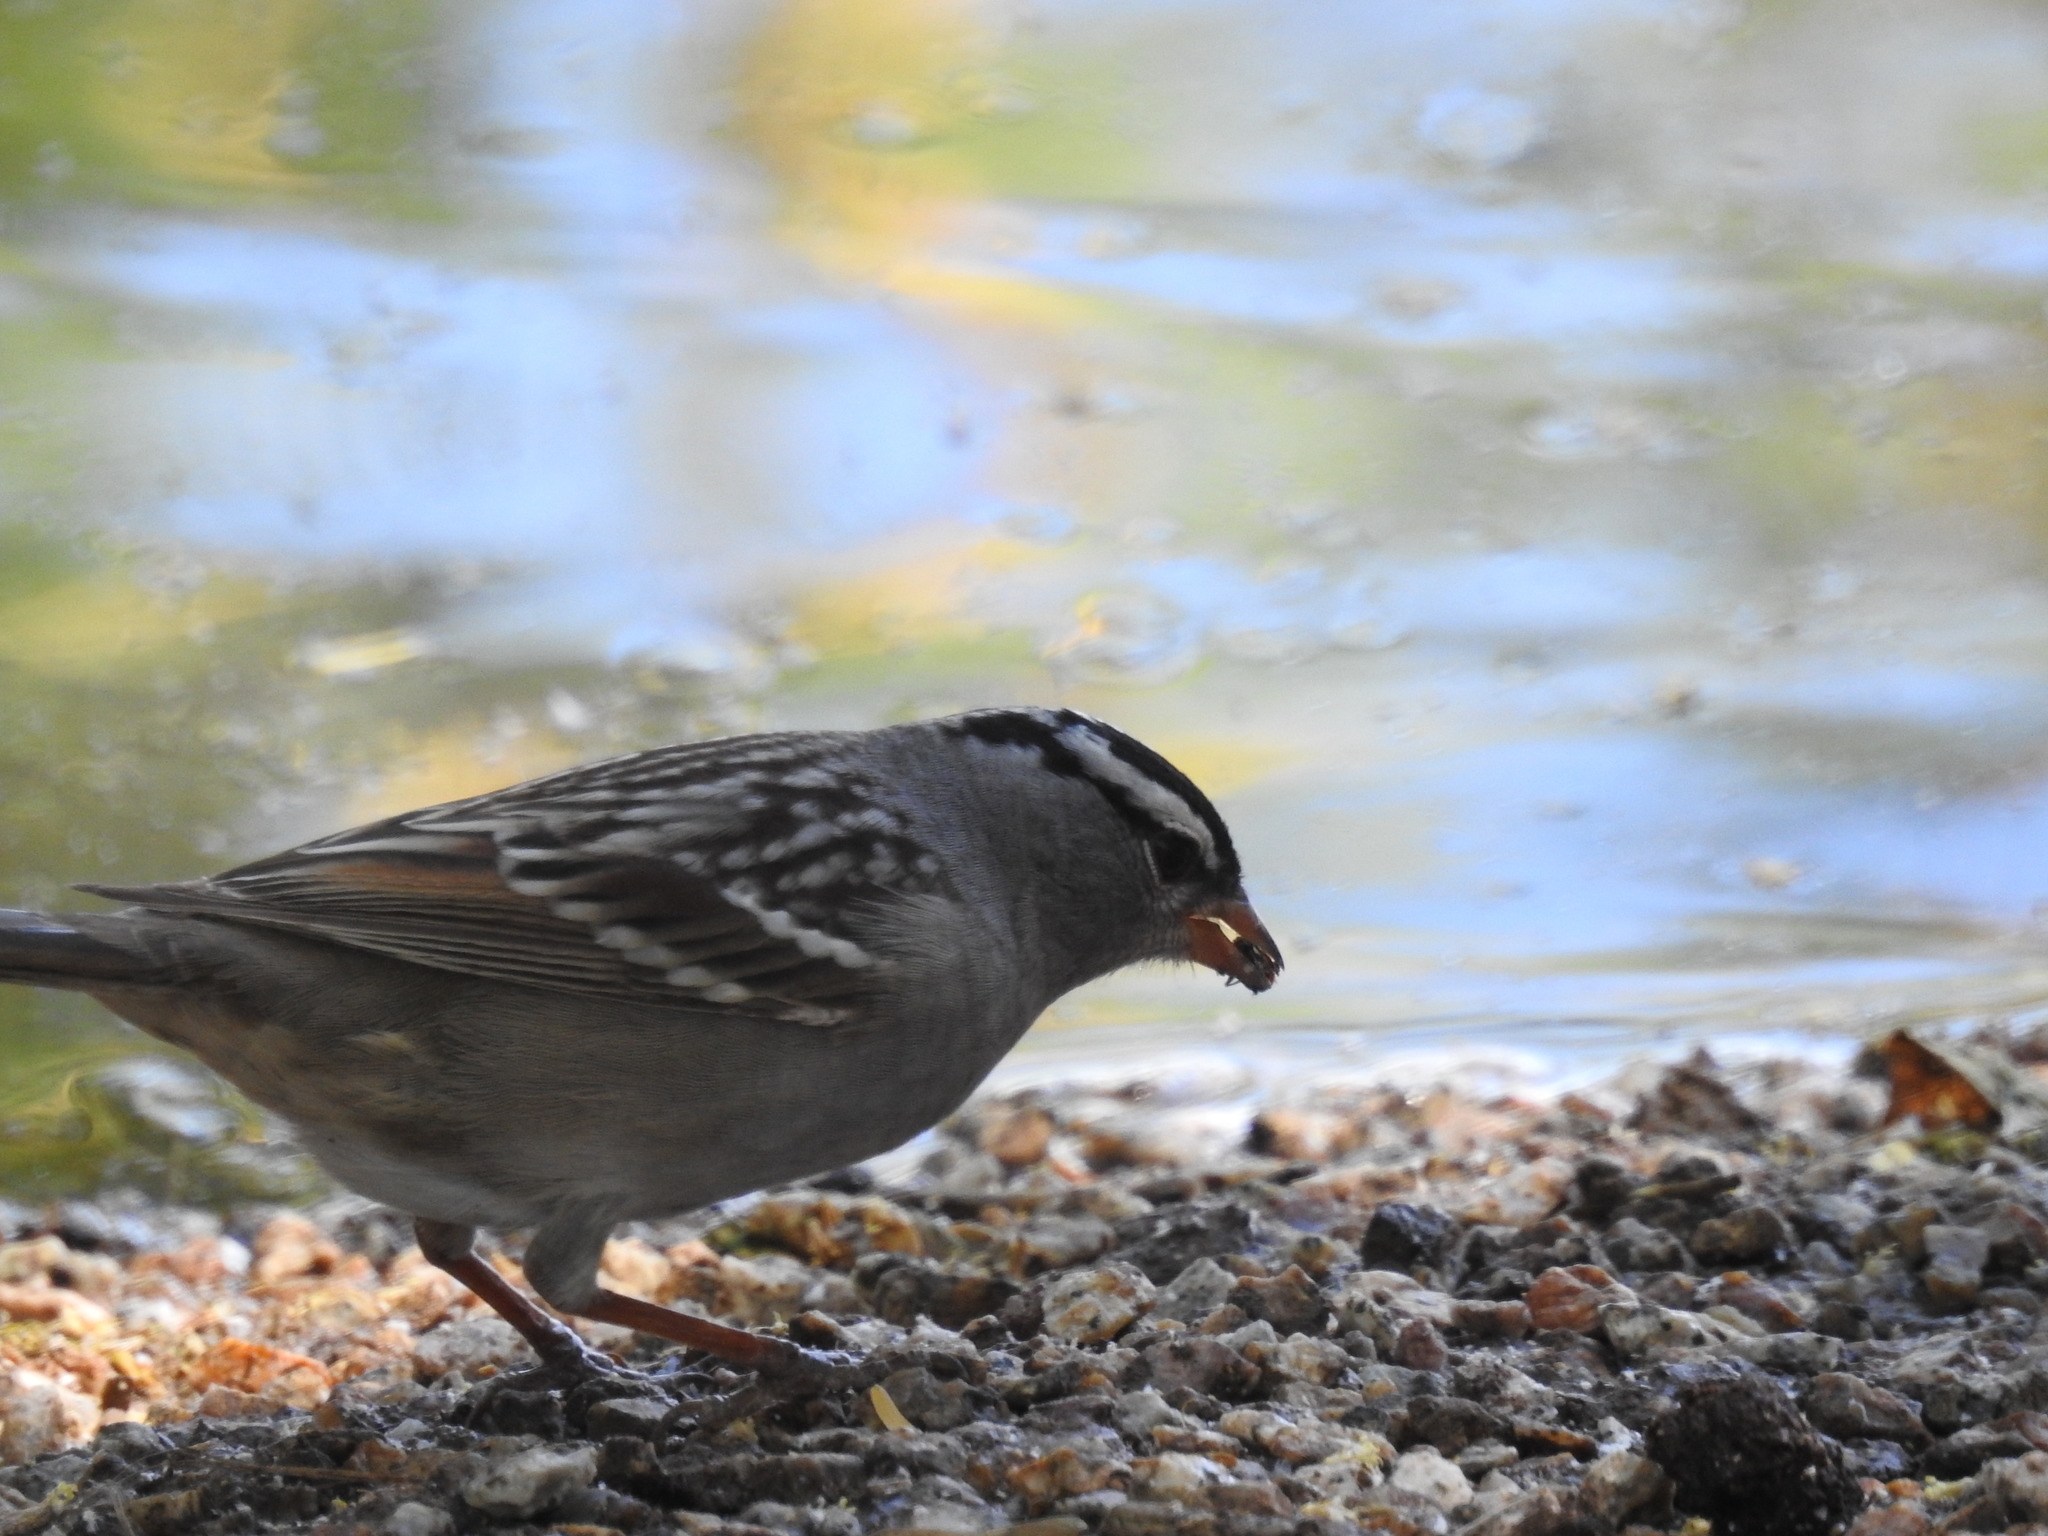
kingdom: Animalia
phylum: Chordata
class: Aves
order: Passeriformes
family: Passerellidae
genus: Zonotrichia
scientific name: Zonotrichia leucophrys
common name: White-crowned sparrow
